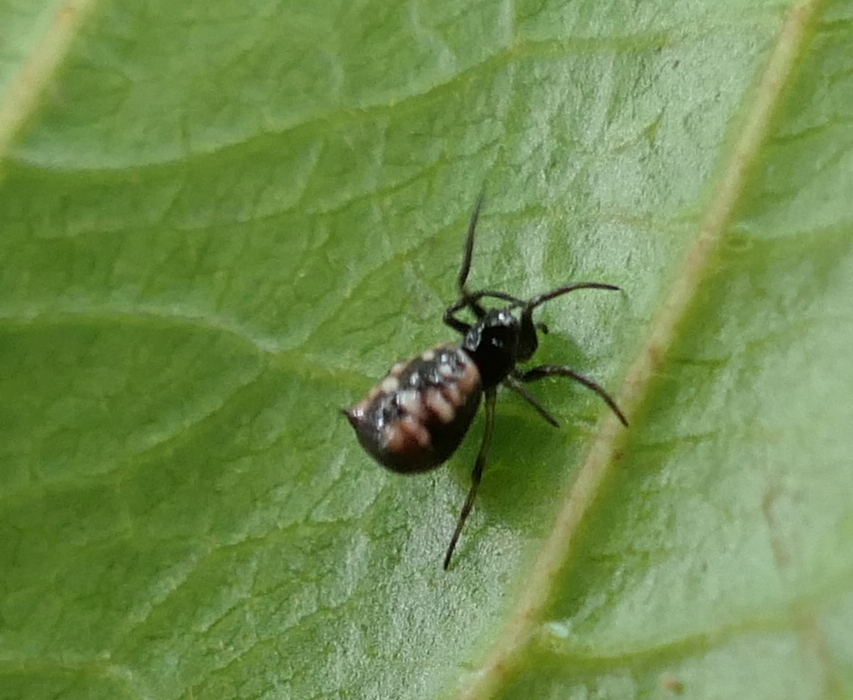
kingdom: Animalia
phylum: Arthropoda
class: Arachnida
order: Araneae
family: Araneidae
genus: Micrathena
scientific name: Micrathena patruelis
